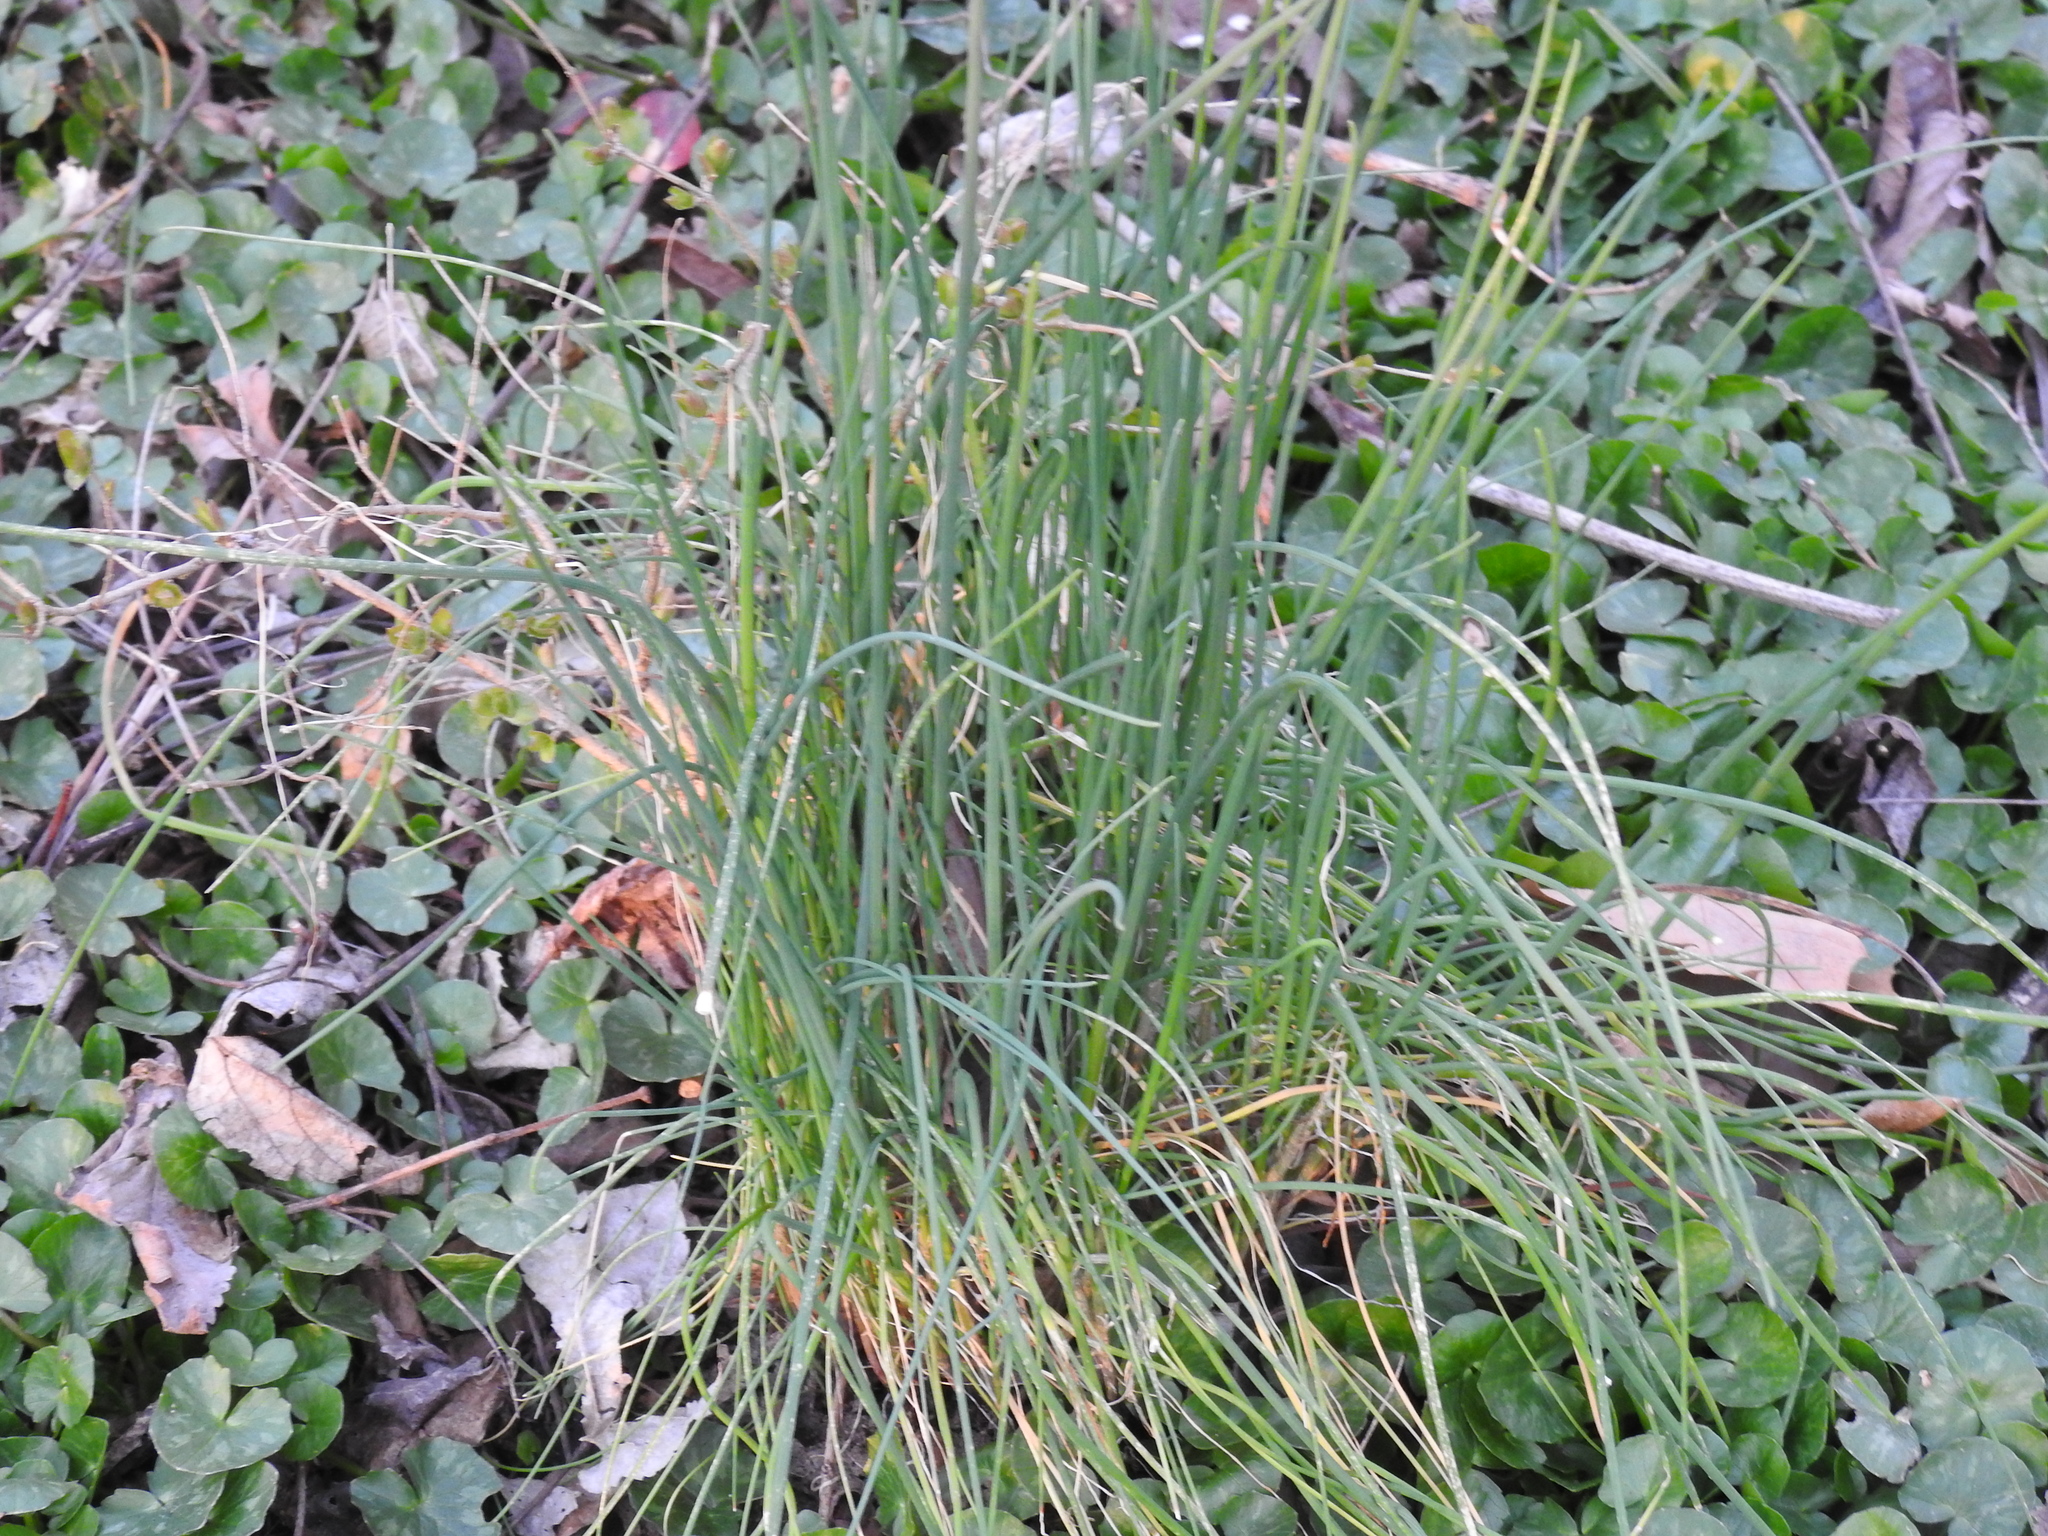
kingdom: Plantae
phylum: Tracheophyta
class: Liliopsida
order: Asparagales
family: Amaryllidaceae
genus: Allium
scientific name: Allium vineale
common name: Crow garlic
